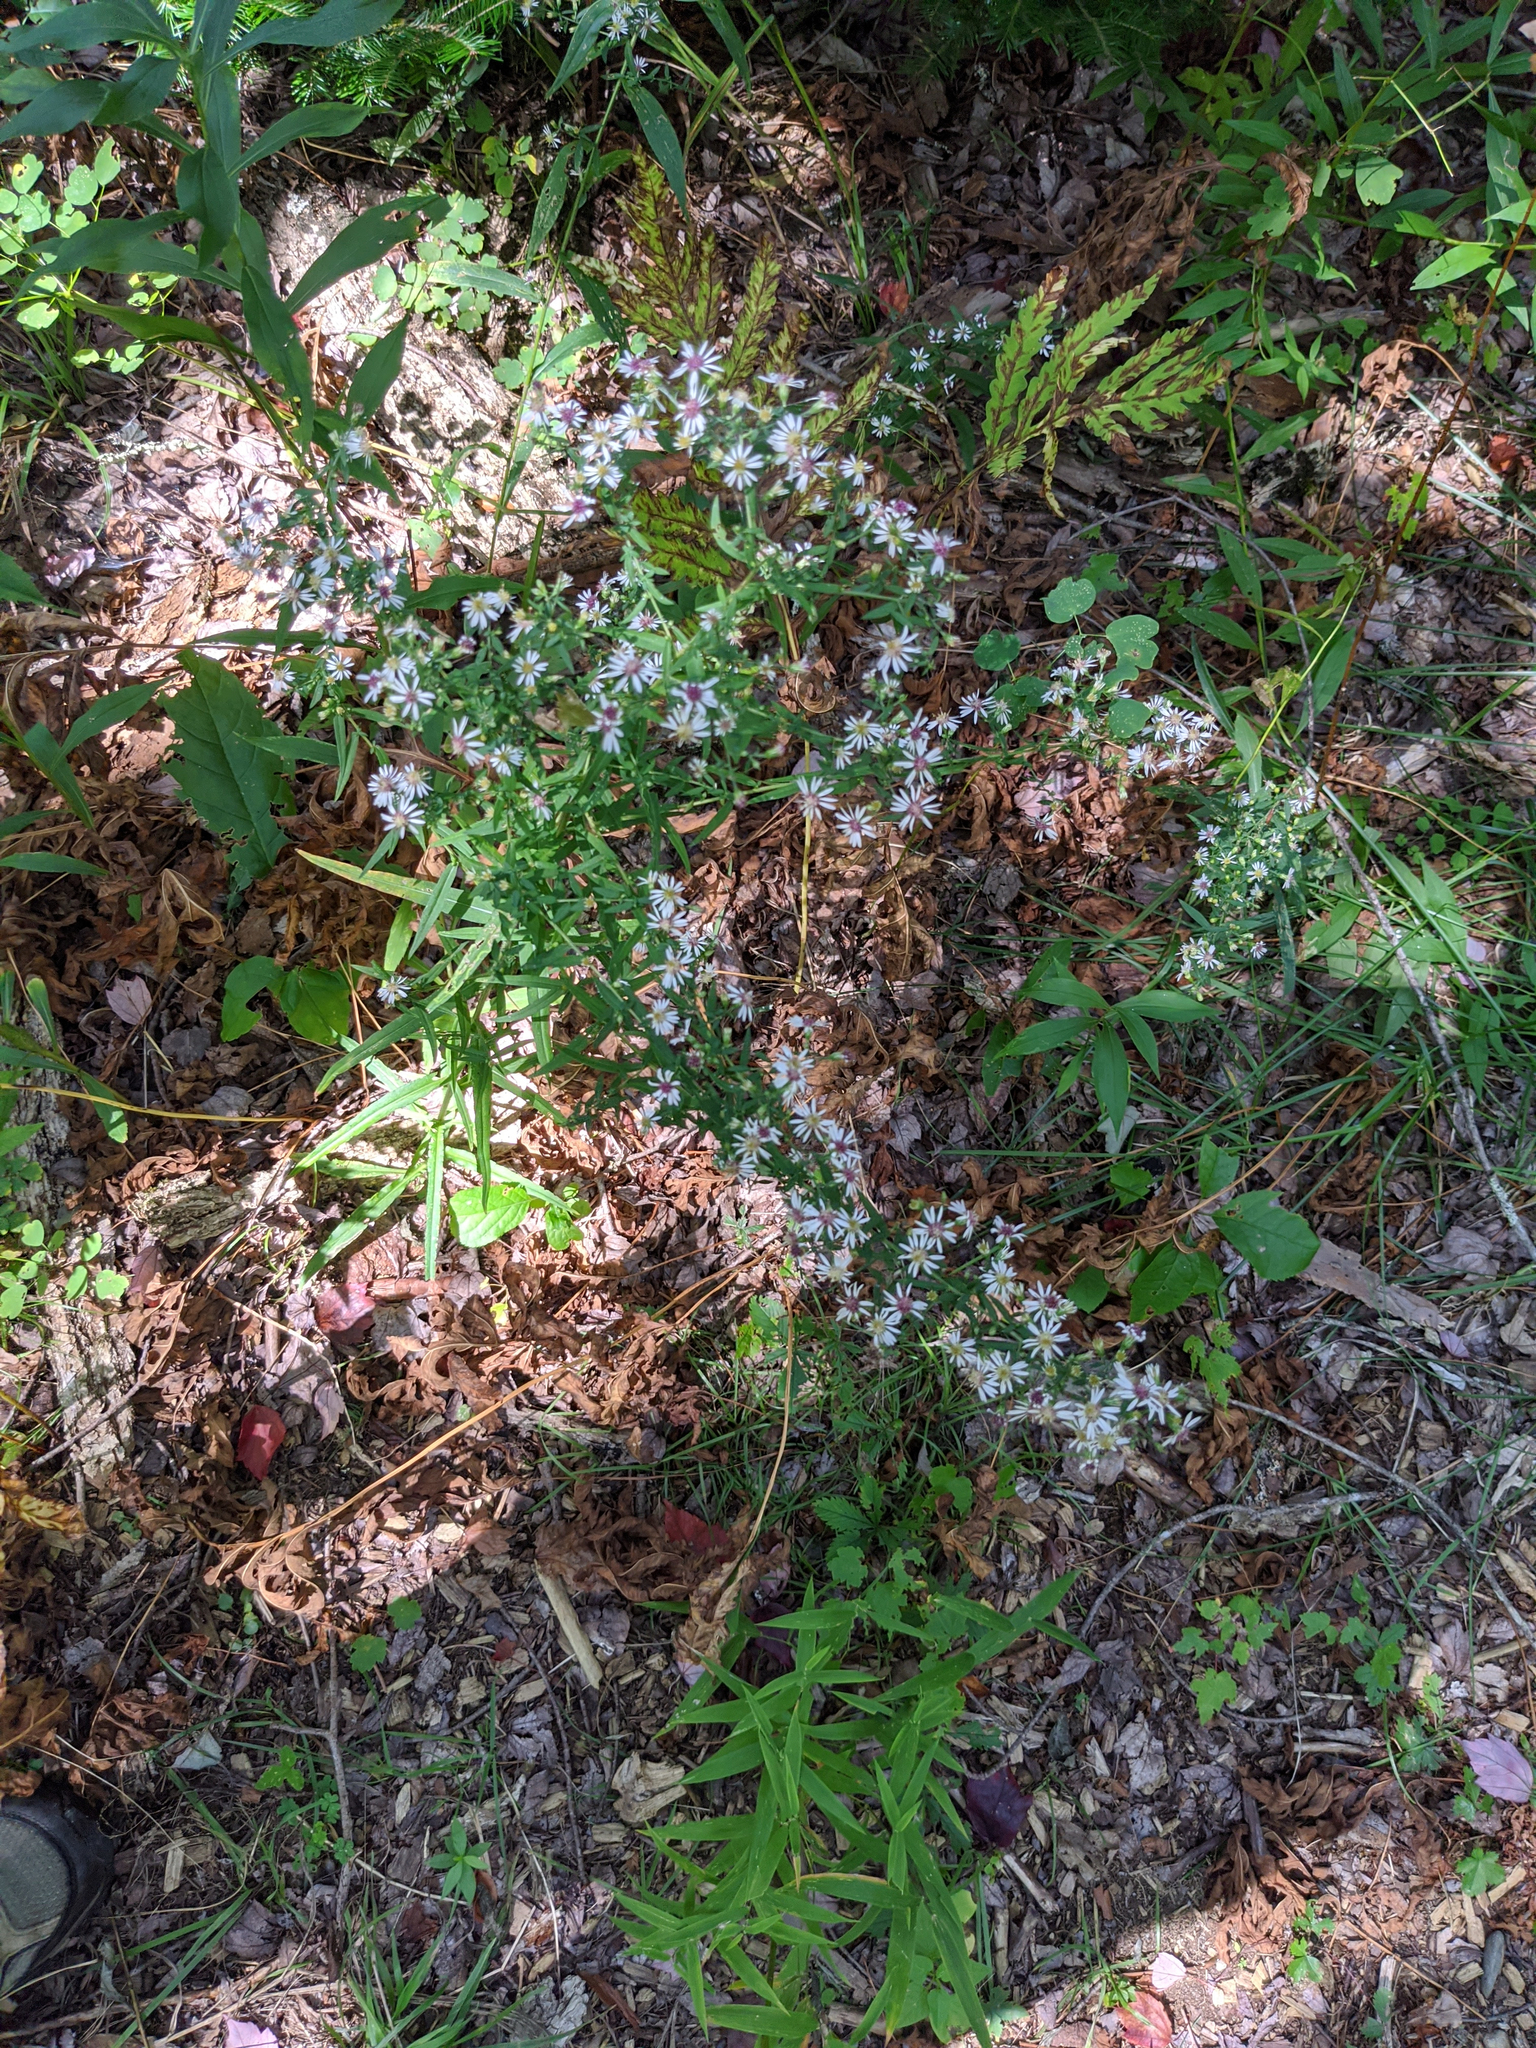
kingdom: Plantae
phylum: Tracheophyta
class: Magnoliopsida
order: Asterales
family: Asteraceae
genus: Symphyotrichum
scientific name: Symphyotrichum lateriflorum
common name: Calico aster
